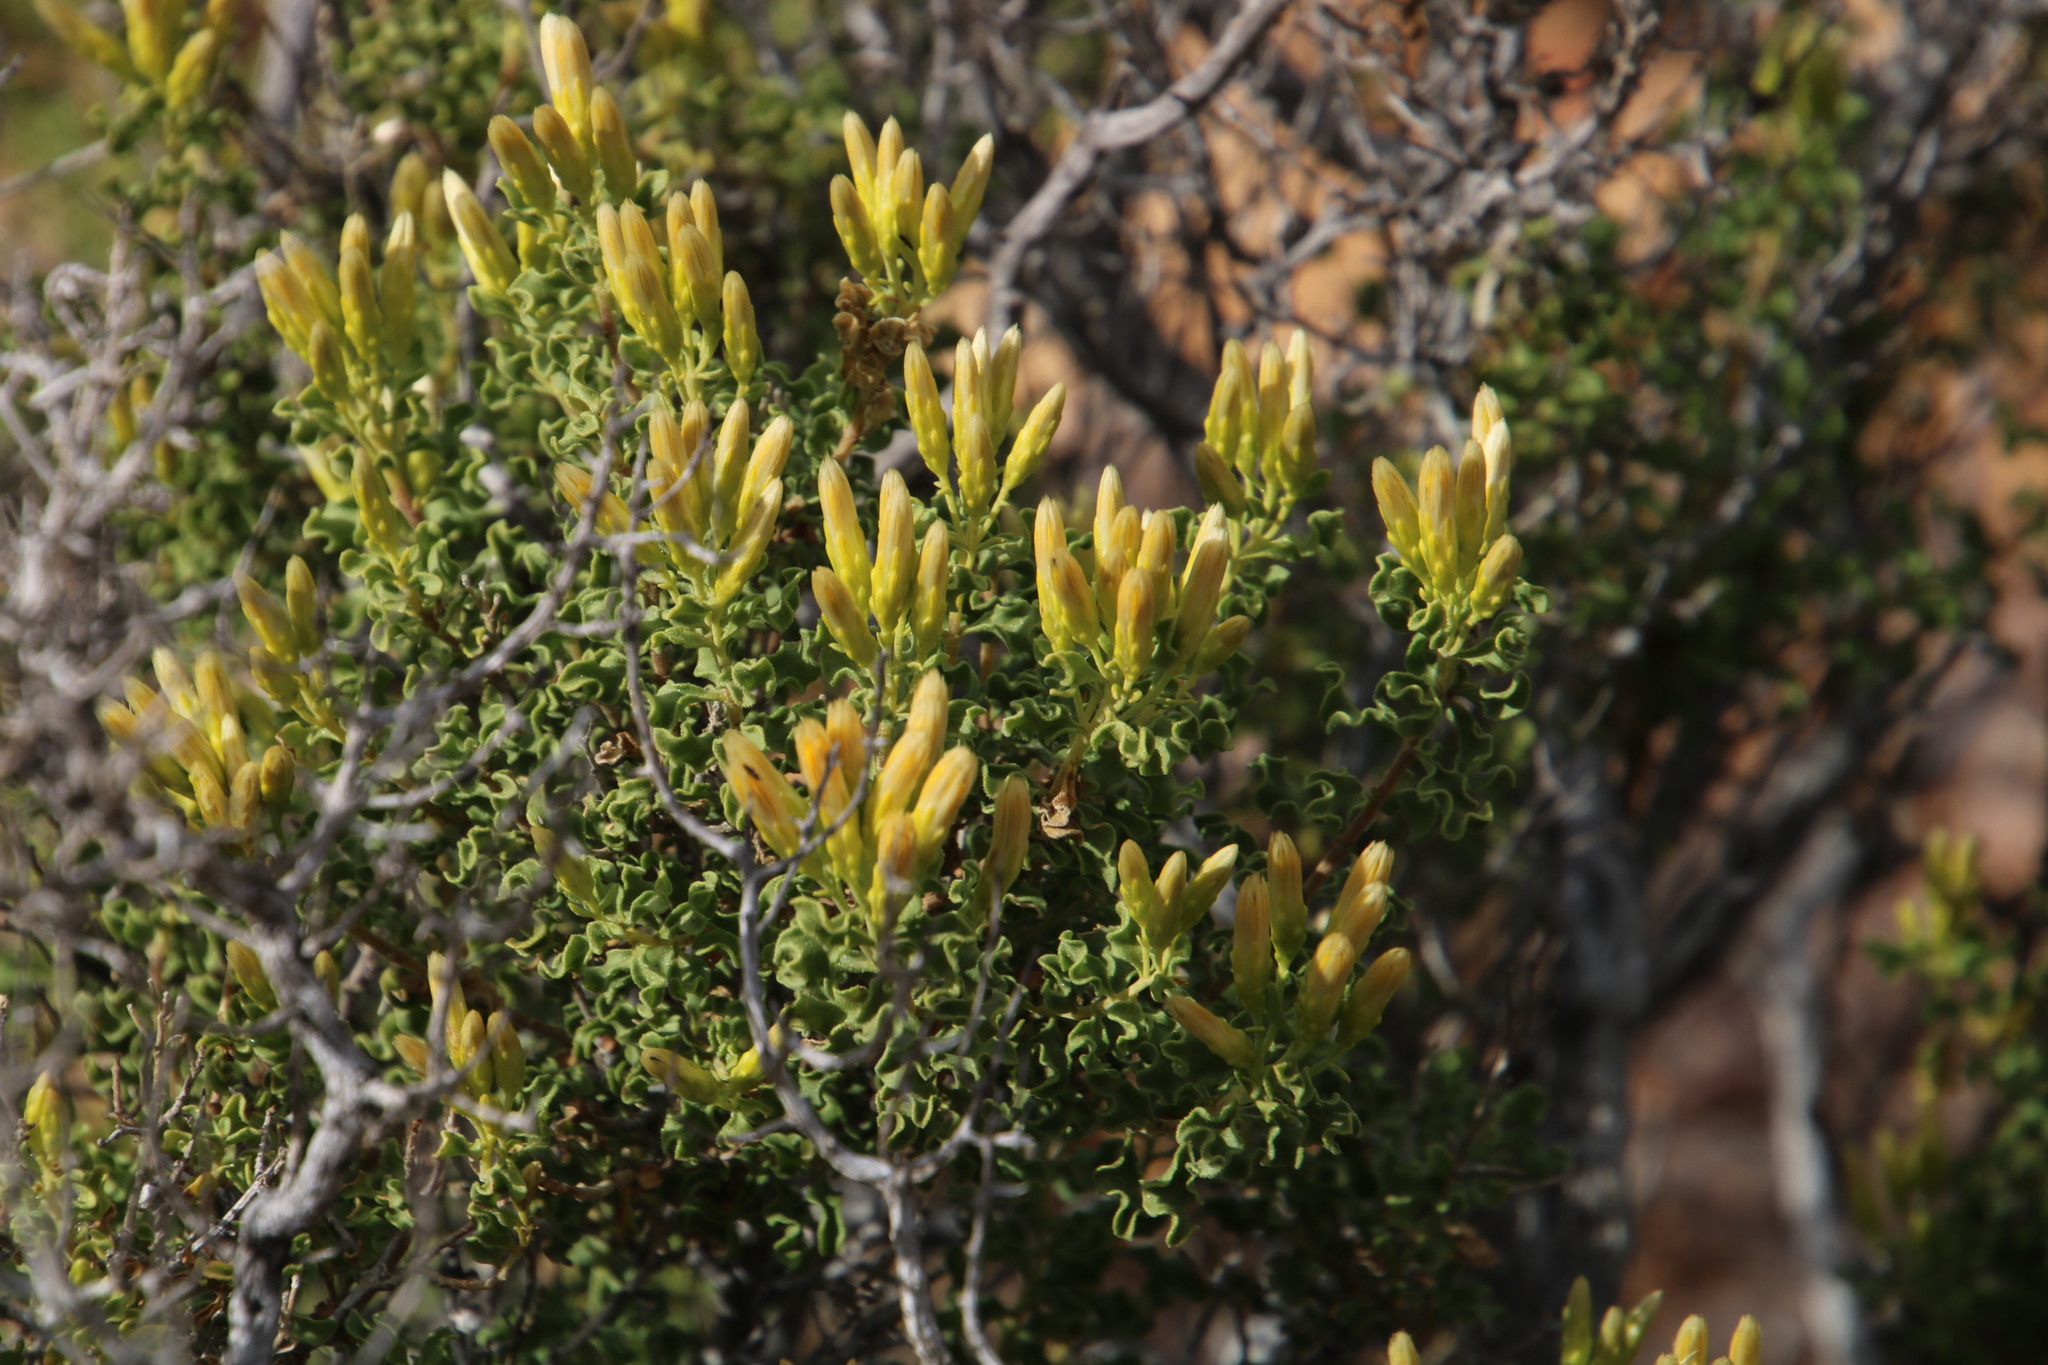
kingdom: Plantae
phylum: Tracheophyta
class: Magnoliopsida
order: Asterales
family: Asteraceae
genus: Pteronia
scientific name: Pteronia undulata
